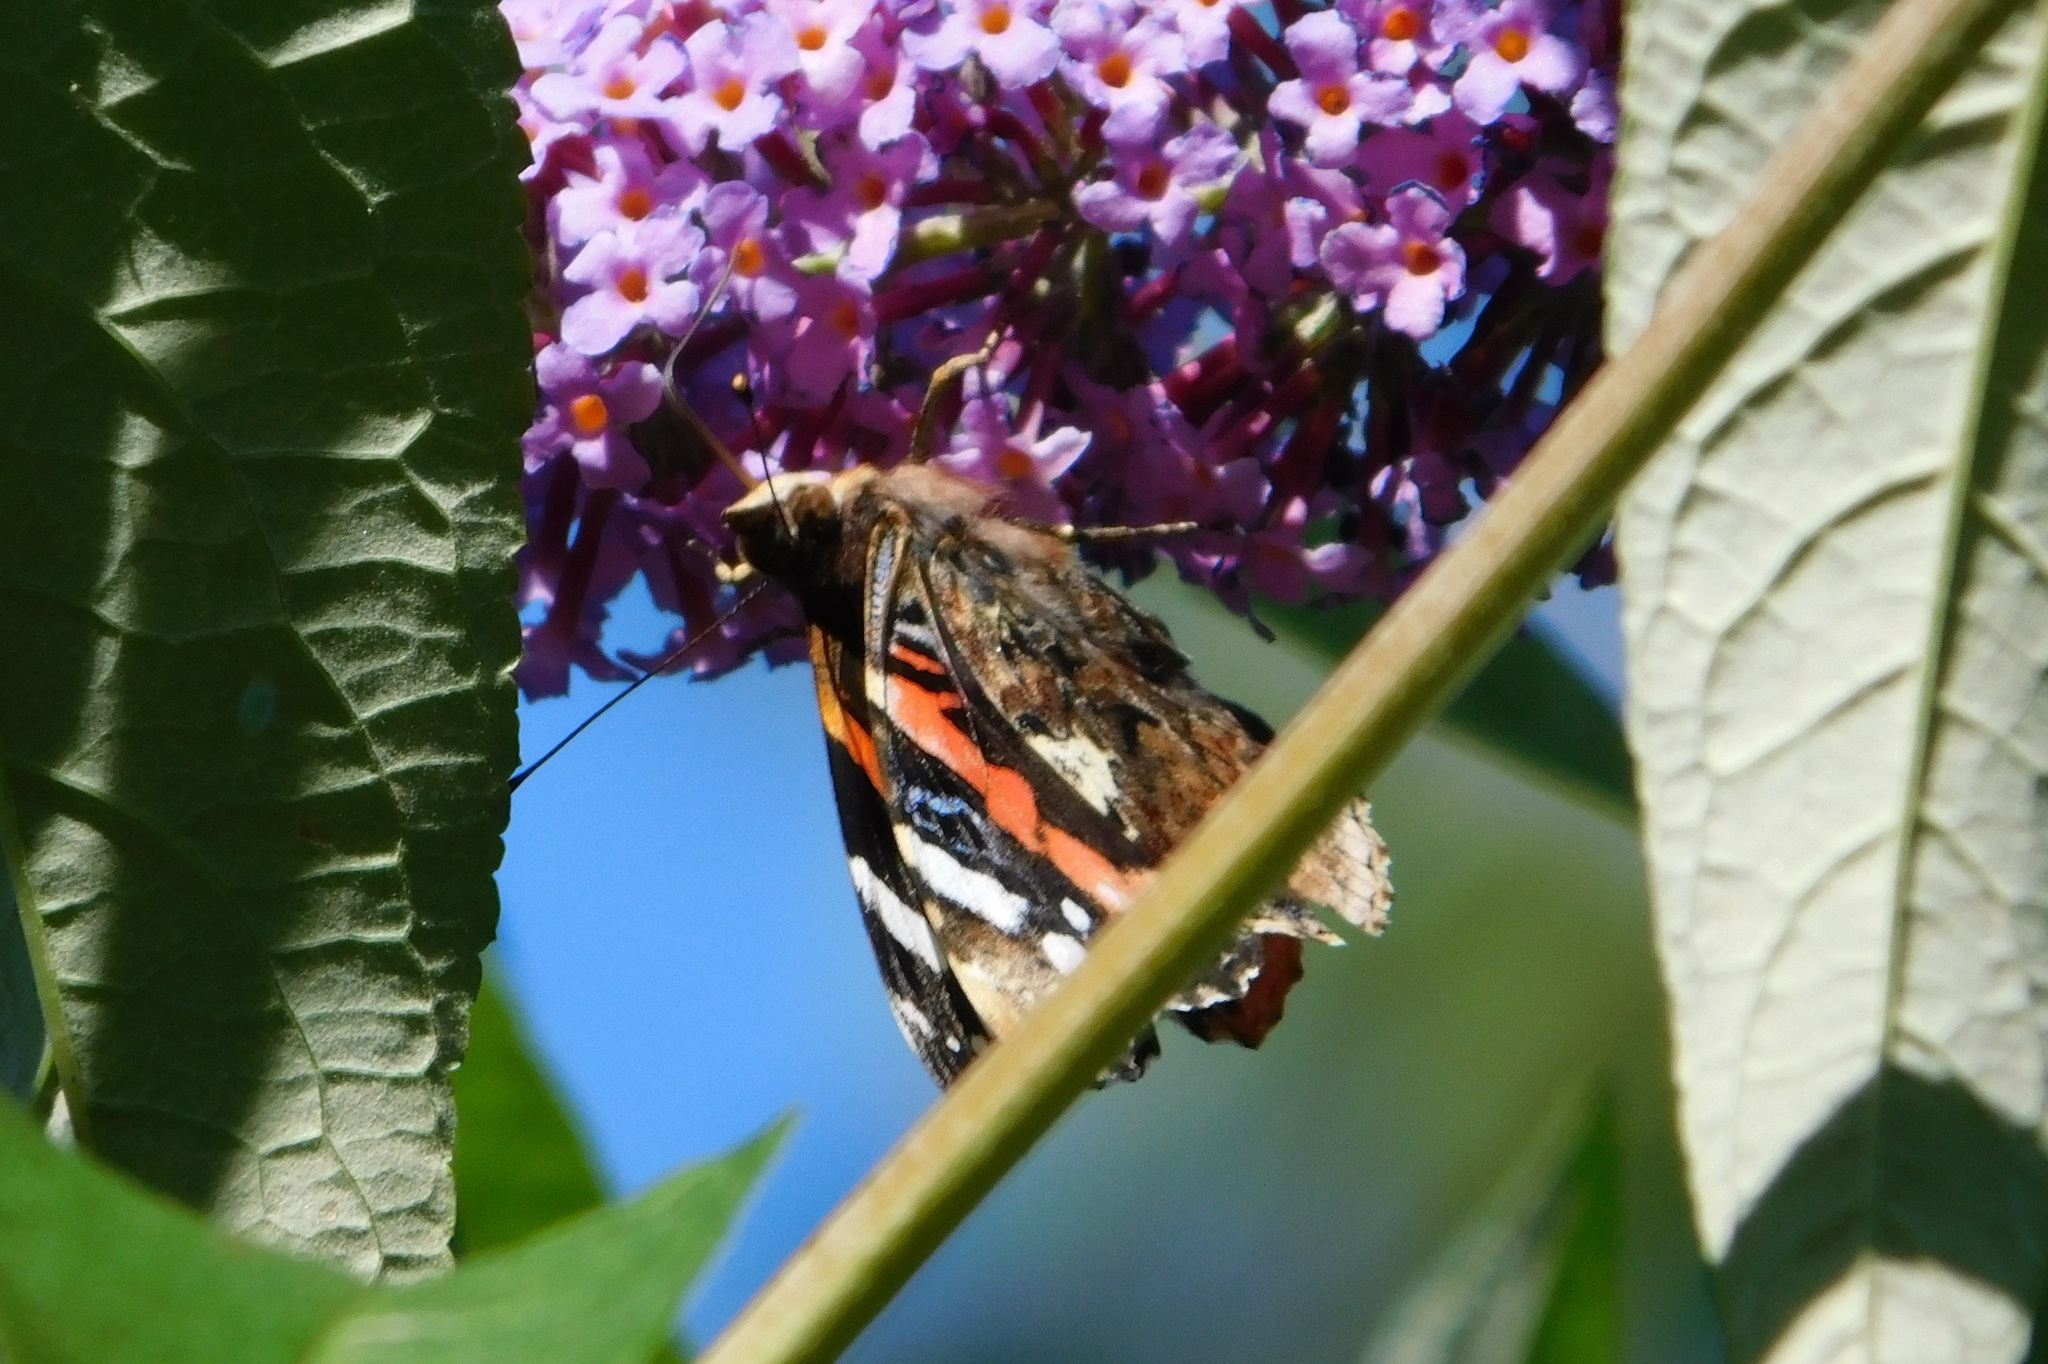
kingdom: Animalia
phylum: Arthropoda
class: Insecta
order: Lepidoptera
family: Nymphalidae
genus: Vanessa
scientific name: Vanessa atalanta
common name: Red admiral
